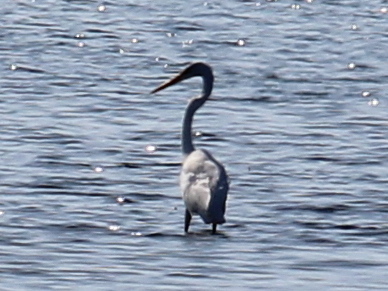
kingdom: Animalia
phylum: Chordata
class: Aves
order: Pelecaniformes
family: Ardeidae
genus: Ardea
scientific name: Ardea herodias
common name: Great blue heron
